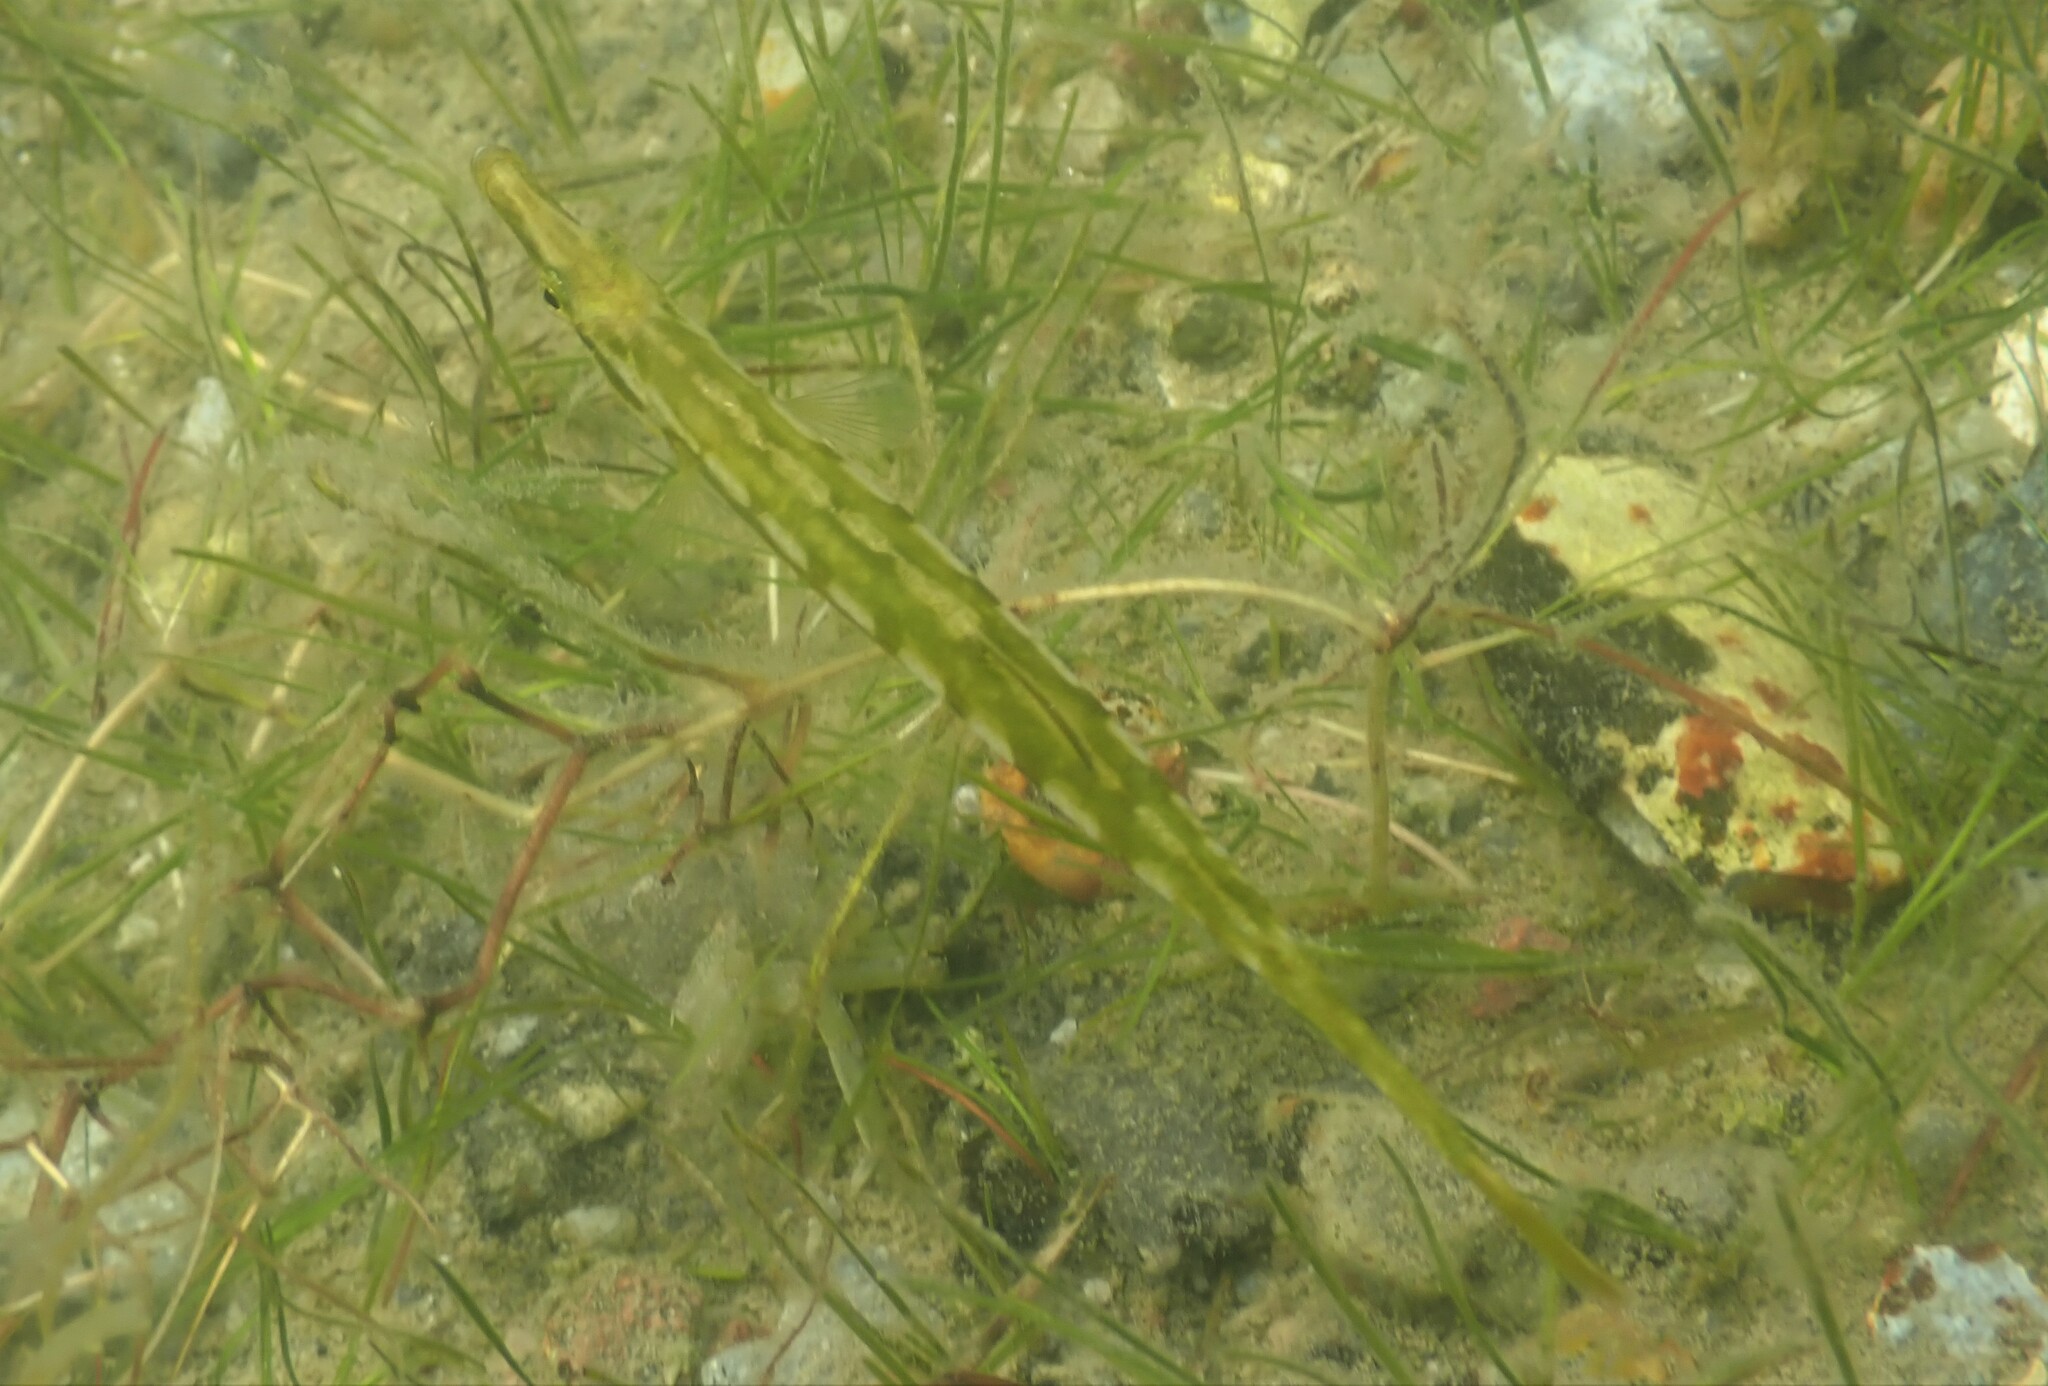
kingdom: Animalia
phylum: Chordata
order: Gasterosteiformes
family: Gasterosteidae
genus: Spinachia
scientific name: Spinachia spinachia
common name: Fifteen-spined stickleback
